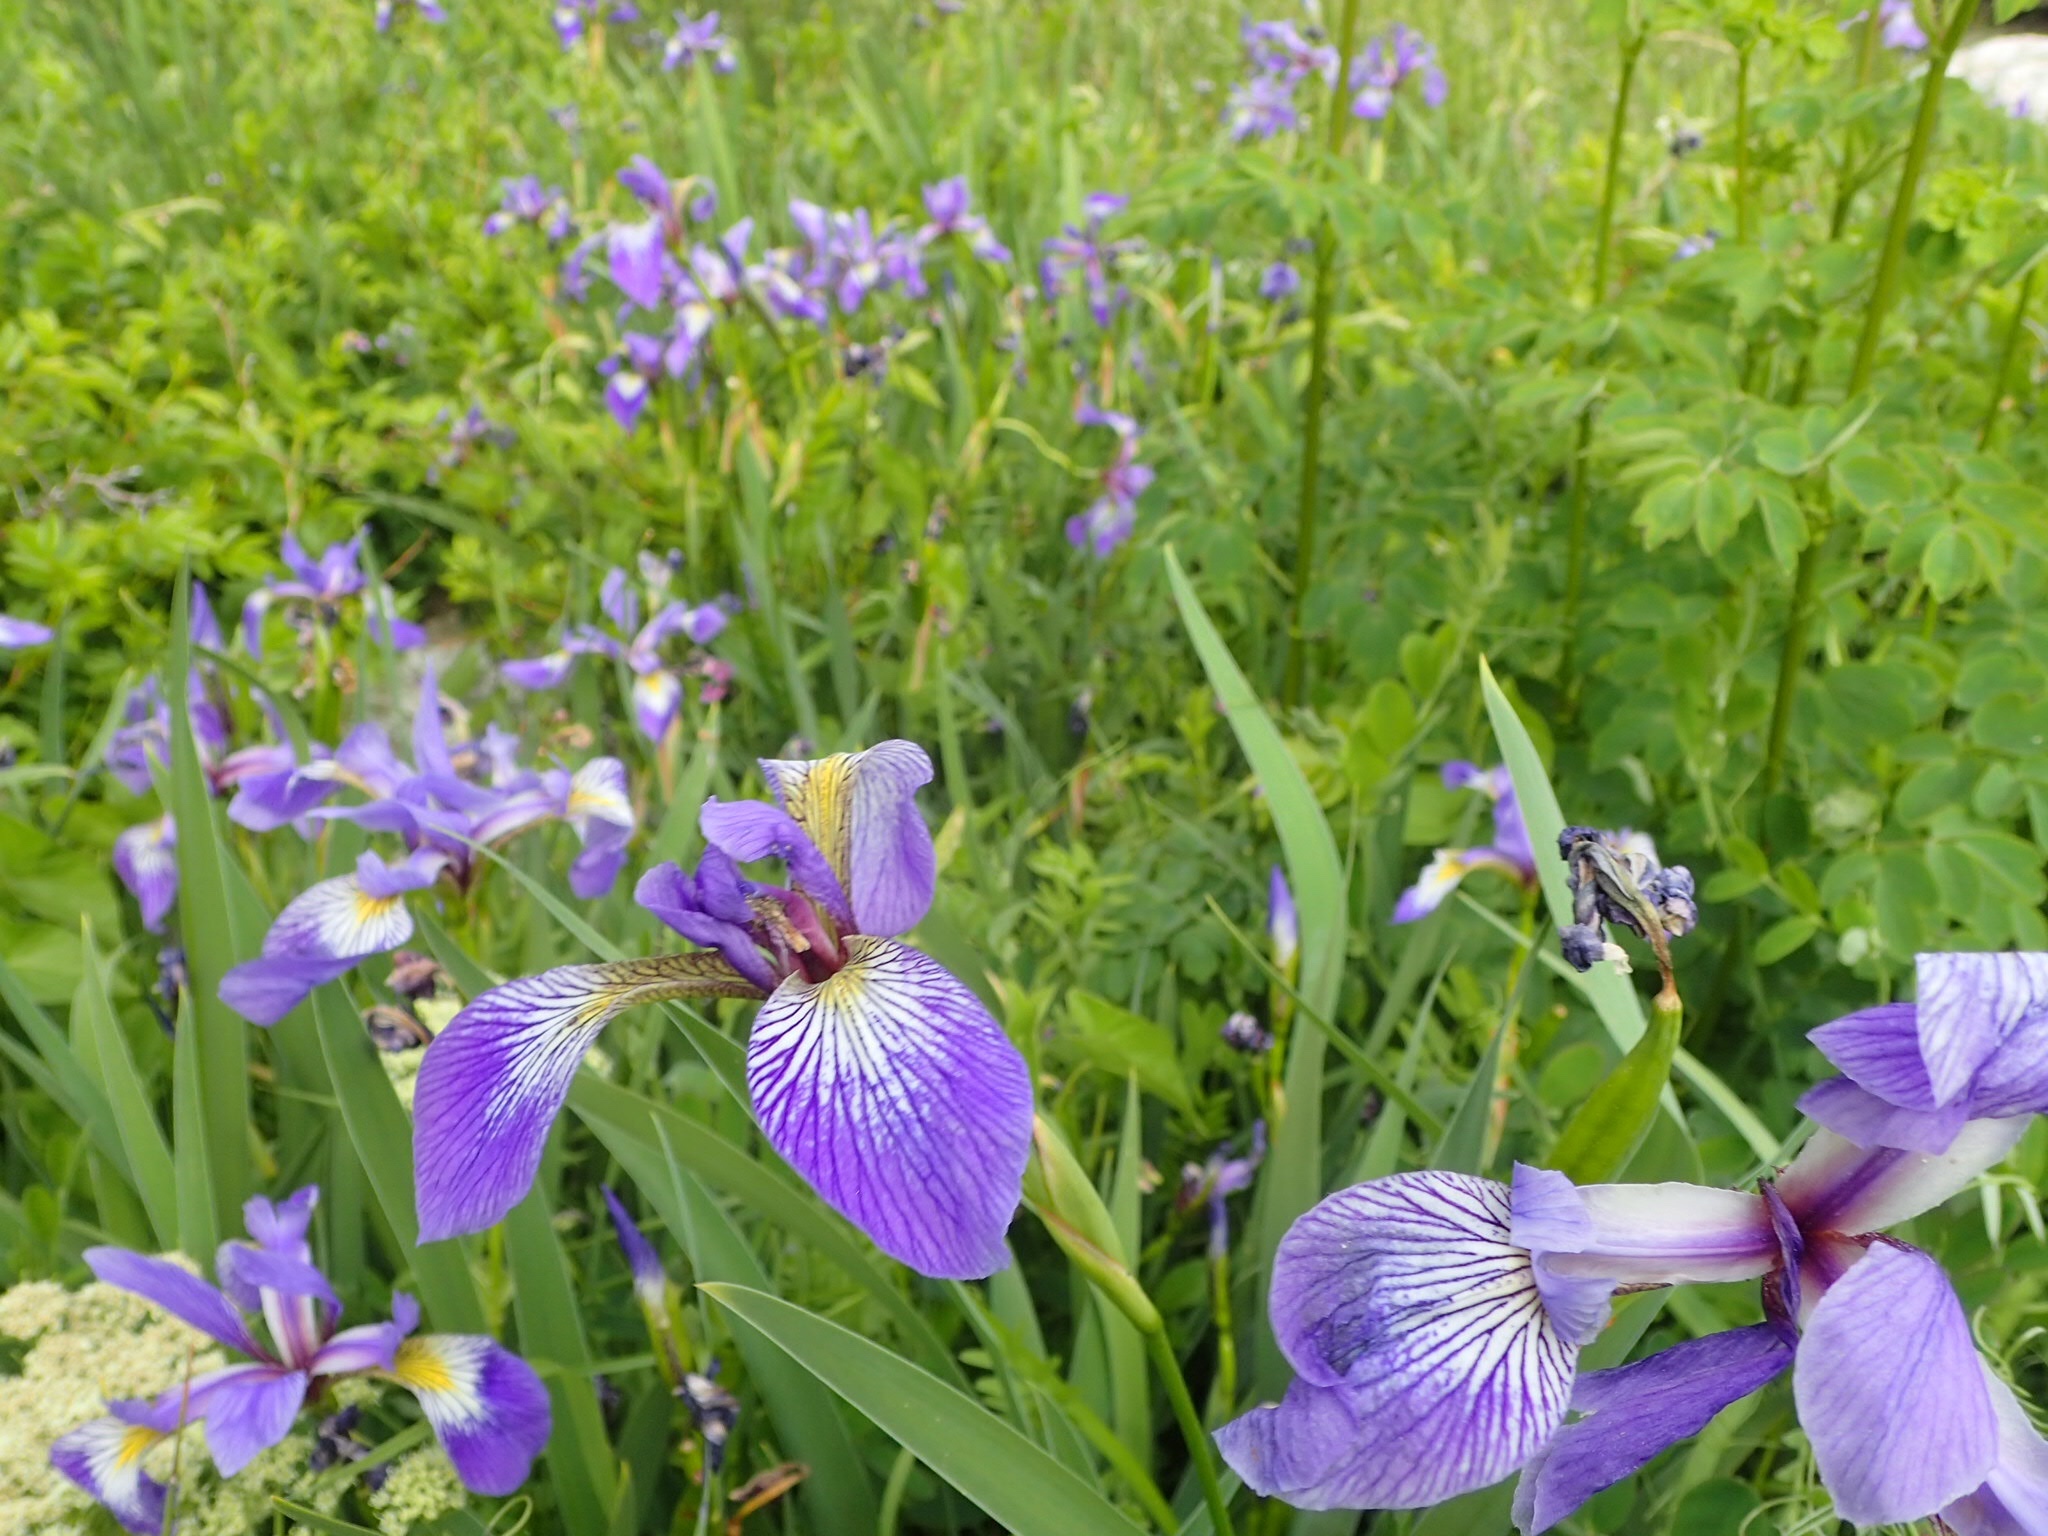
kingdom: Plantae
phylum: Tracheophyta
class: Liliopsida
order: Asparagales
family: Iridaceae
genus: Iris
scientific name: Iris versicolor
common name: Purple iris
